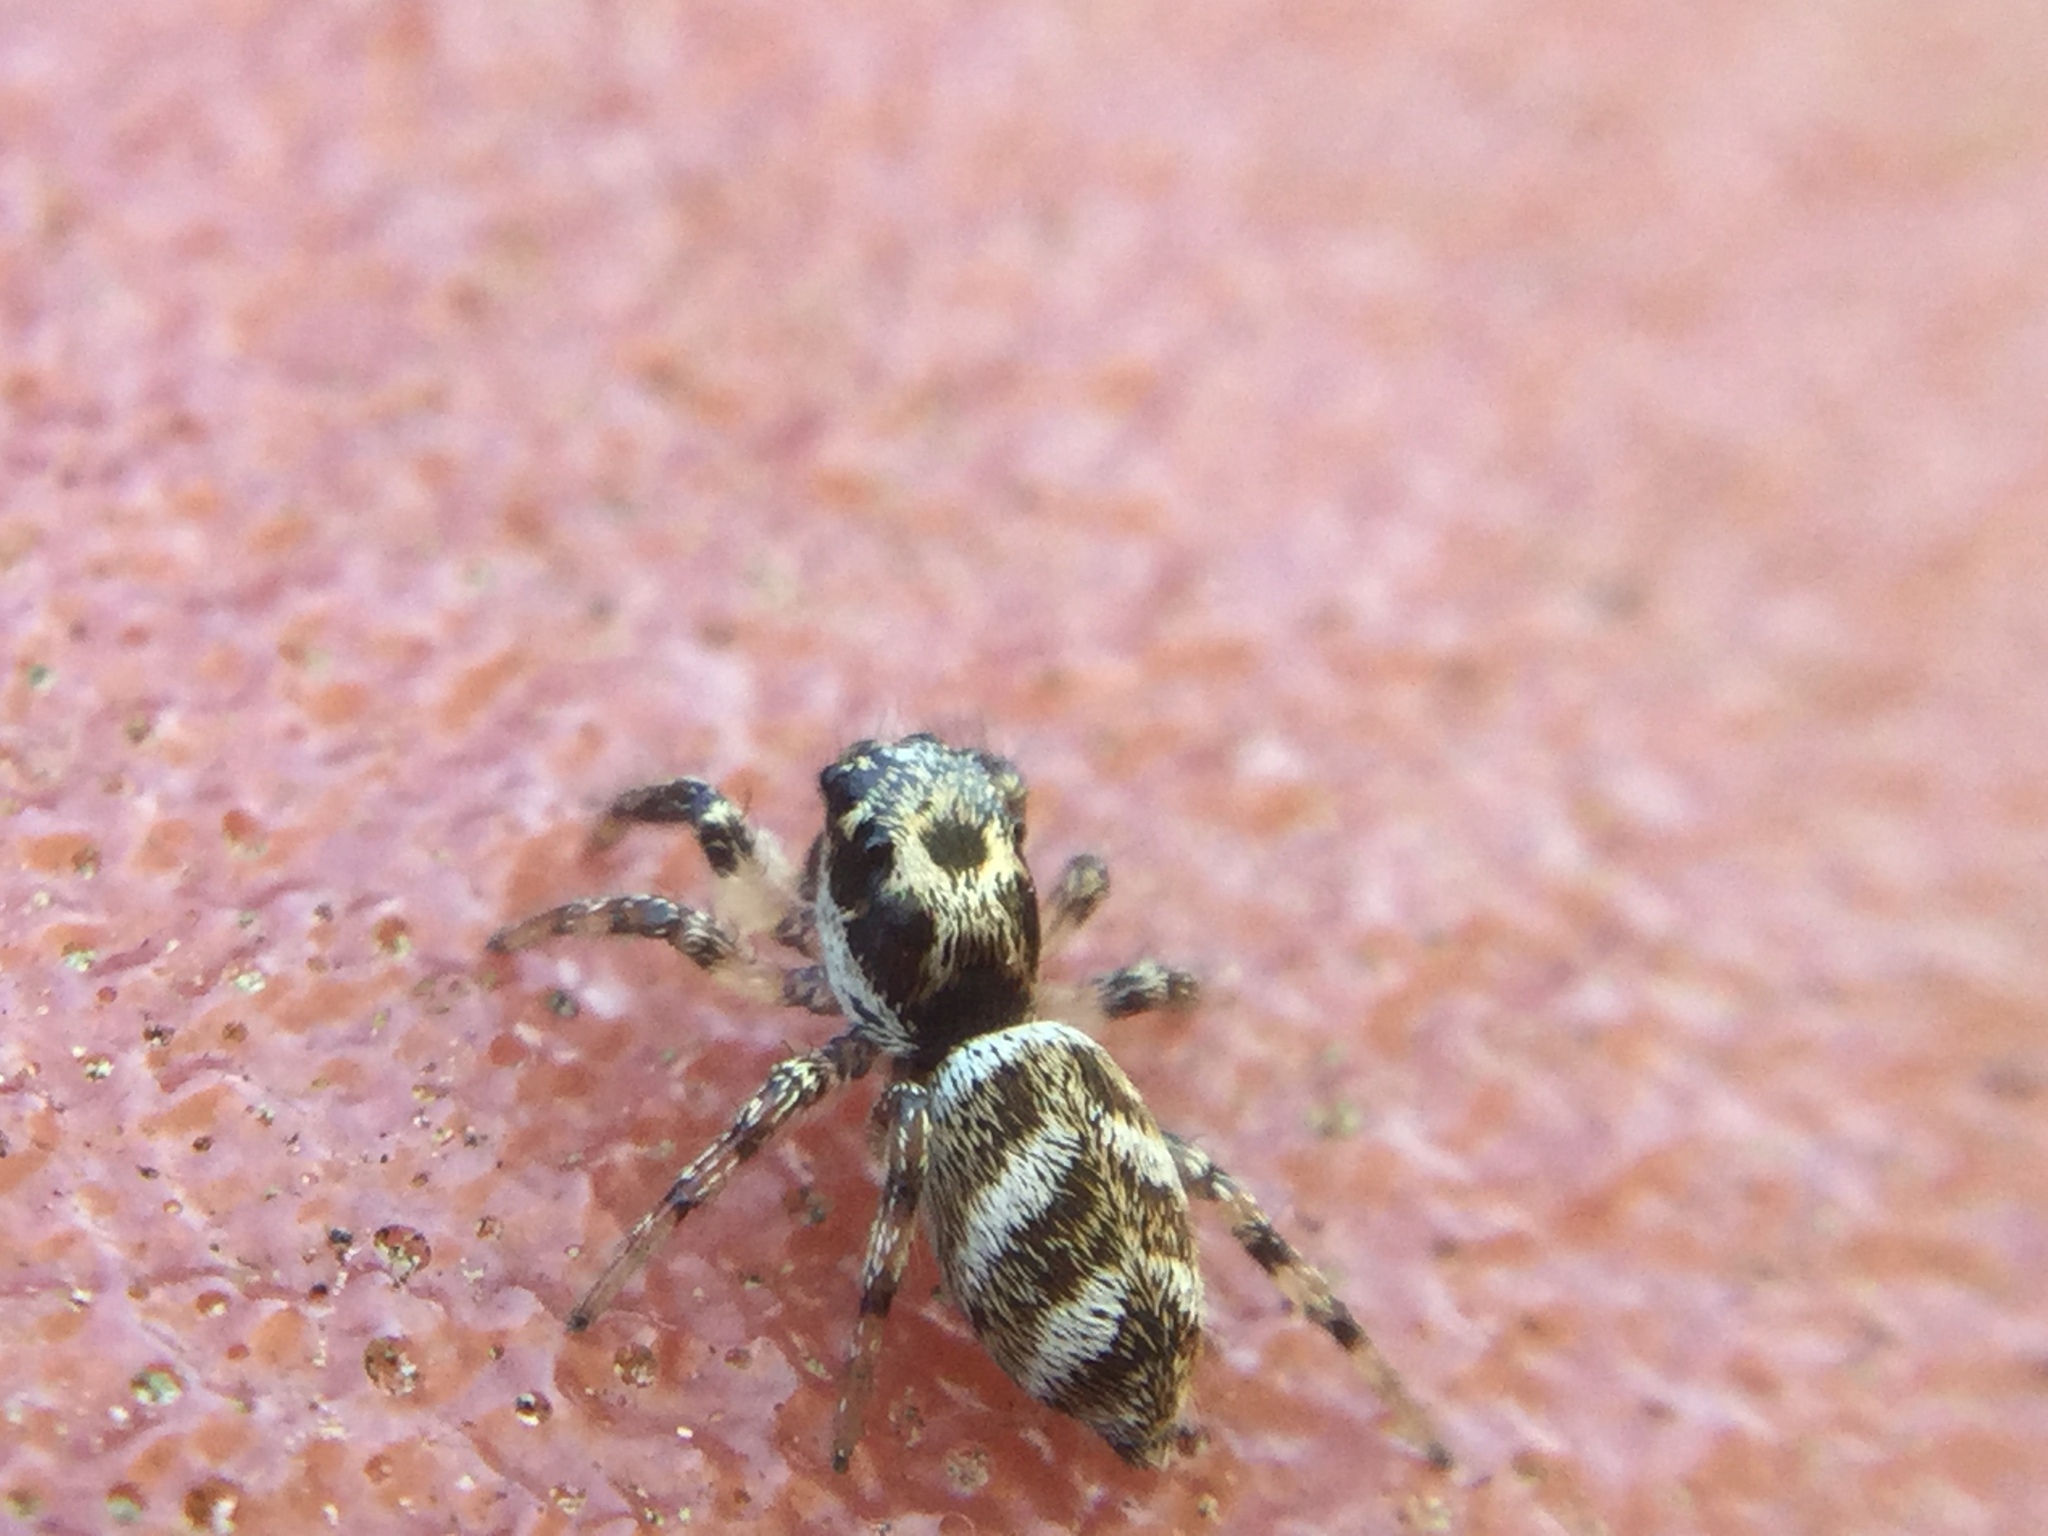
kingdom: Animalia
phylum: Arthropoda
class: Arachnida
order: Araneae
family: Salticidae
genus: Salticus
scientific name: Salticus scenicus
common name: Zebra jumper
